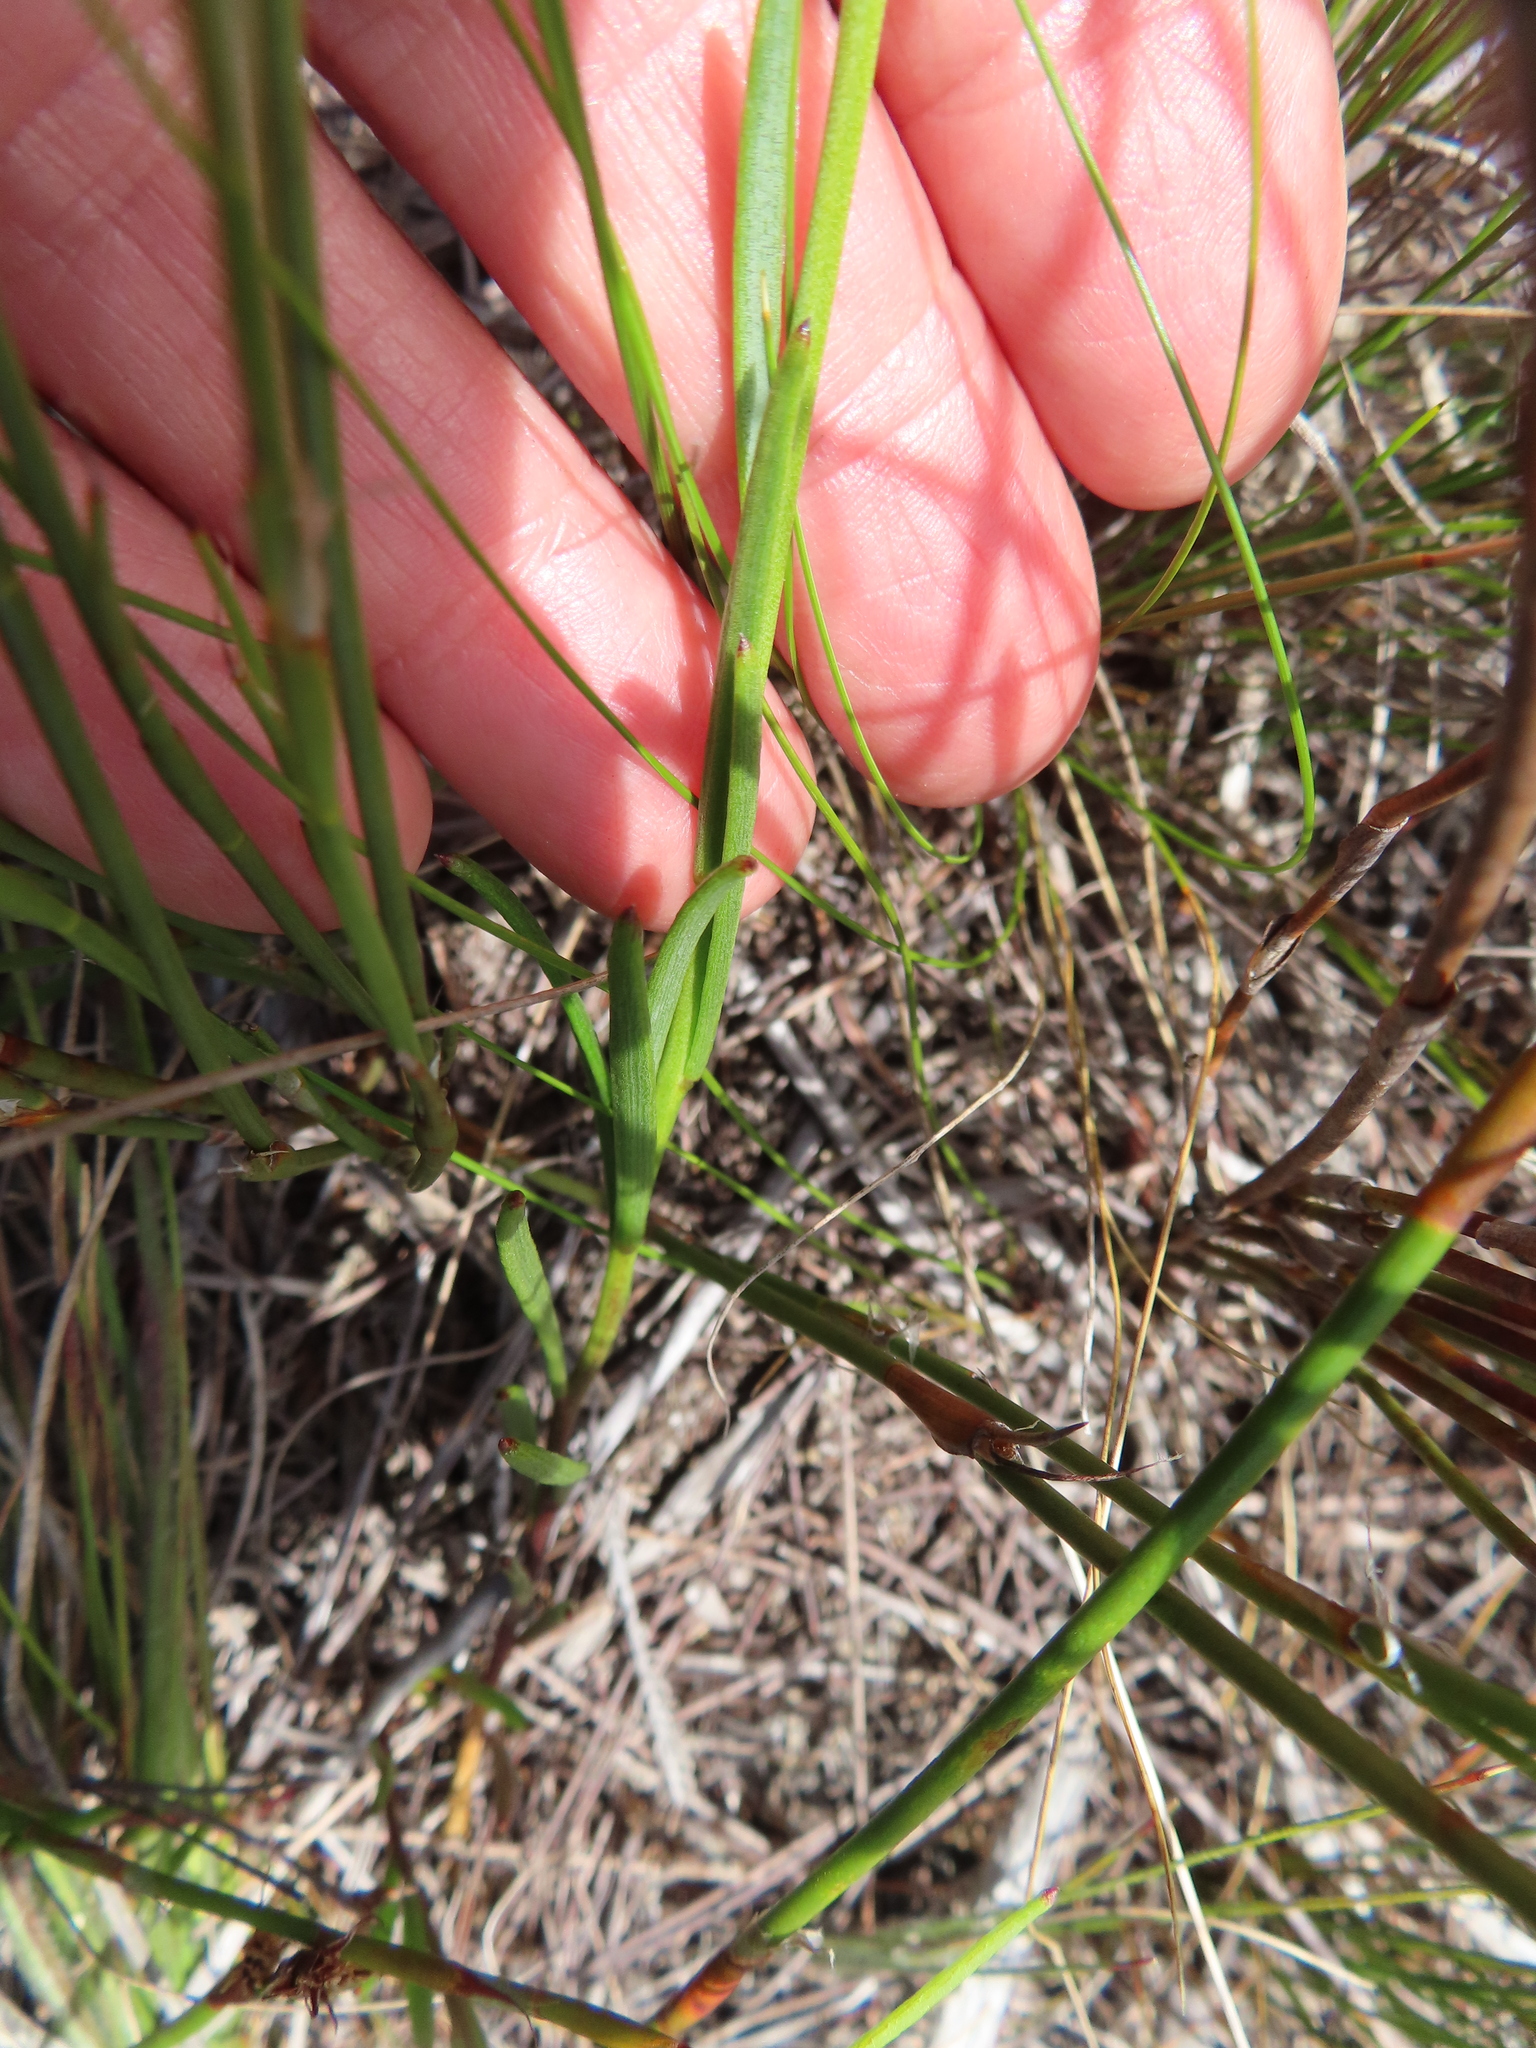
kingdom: Plantae
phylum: Tracheophyta
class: Magnoliopsida
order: Brassicales
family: Brassicaceae
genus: Heliophila
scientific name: Heliophila macra
